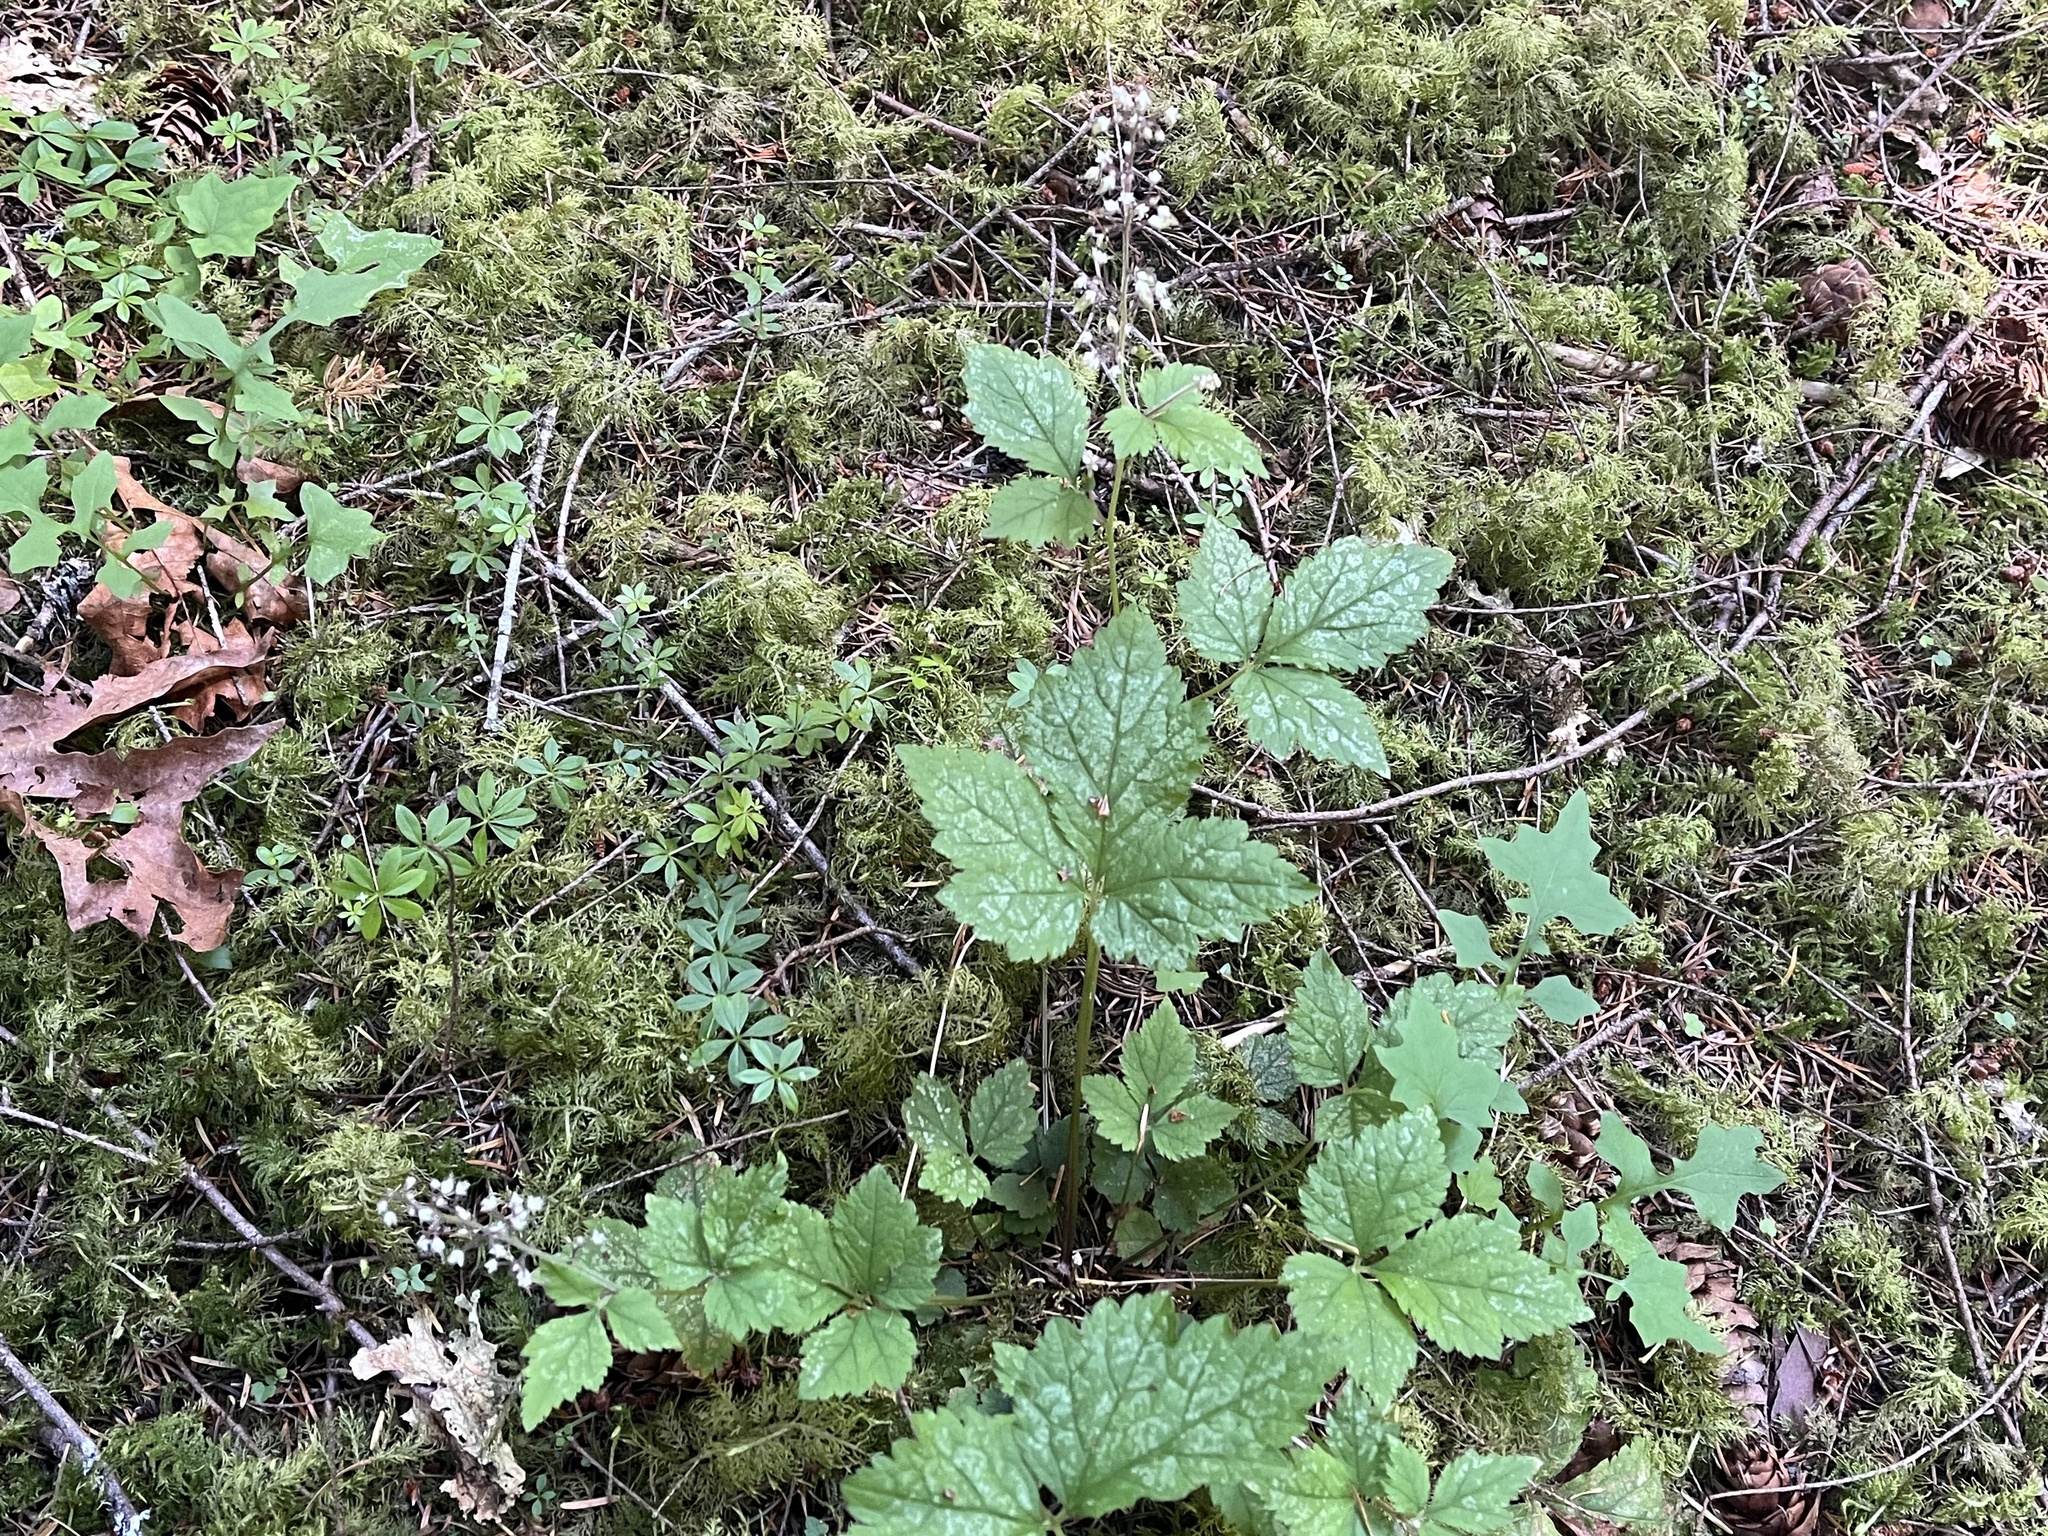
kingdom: Plantae
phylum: Tracheophyta
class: Magnoliopsida
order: Saxifragales
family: Saxifragaceae
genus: Tiarella
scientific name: Tiarella trifoliata
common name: Sugar-scoop
